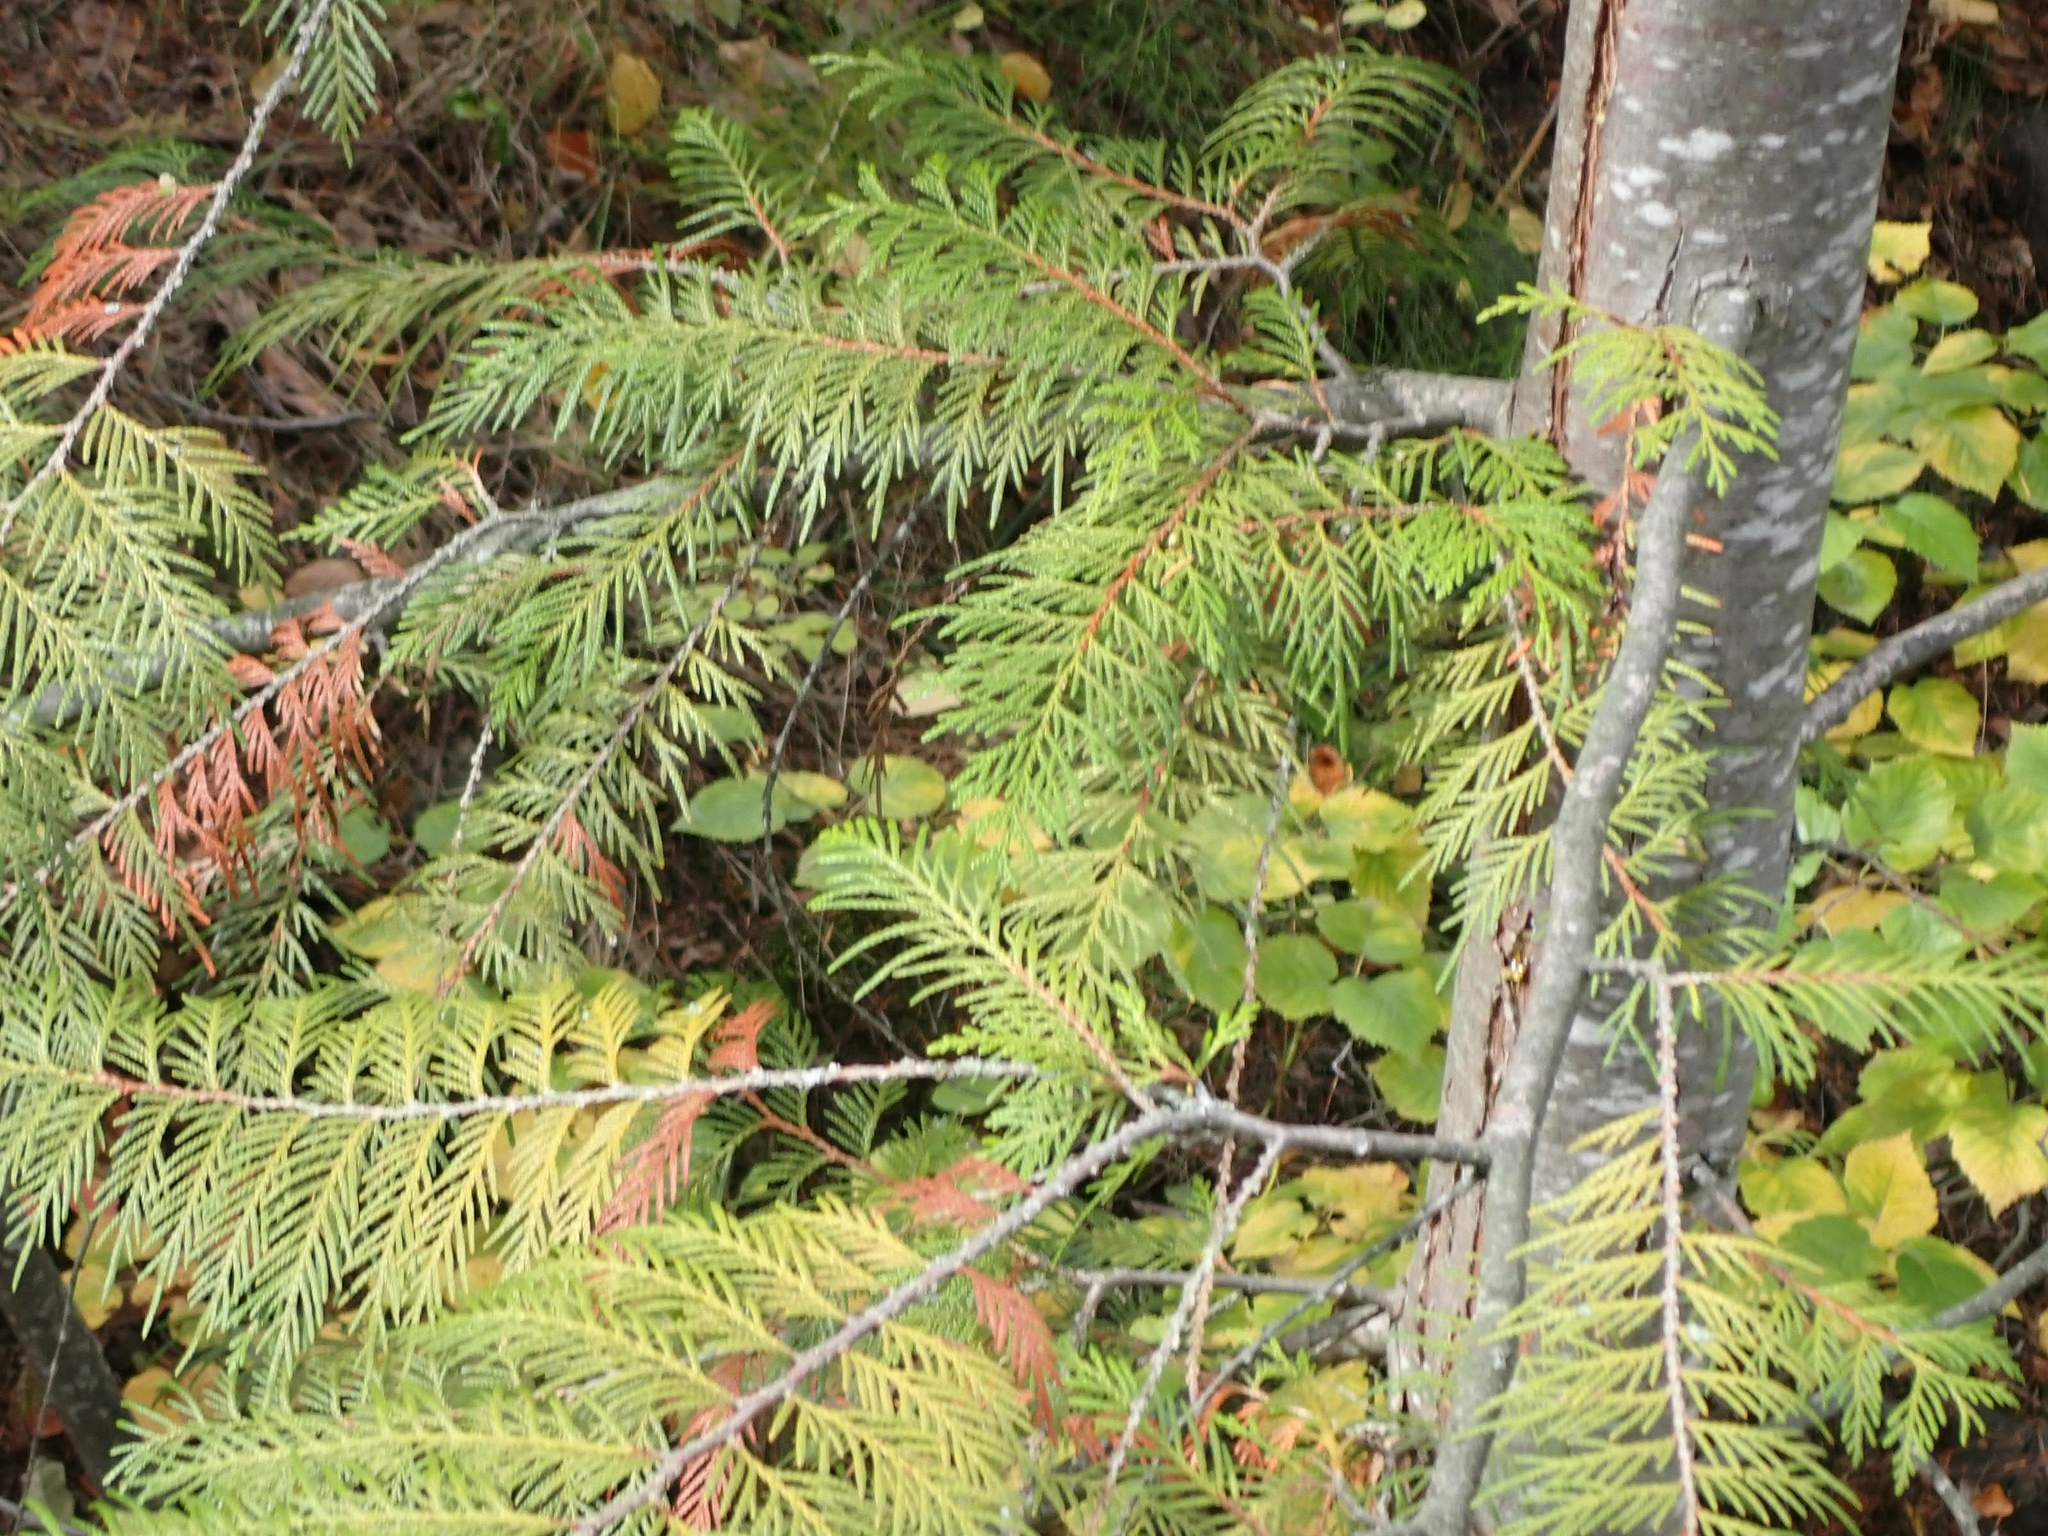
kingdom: Plantae
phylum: Tracheophyta
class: Pinopsida
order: Pinales
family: Cupressaceae
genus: Thuja
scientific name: Thuja plicata
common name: Western red-cedar
